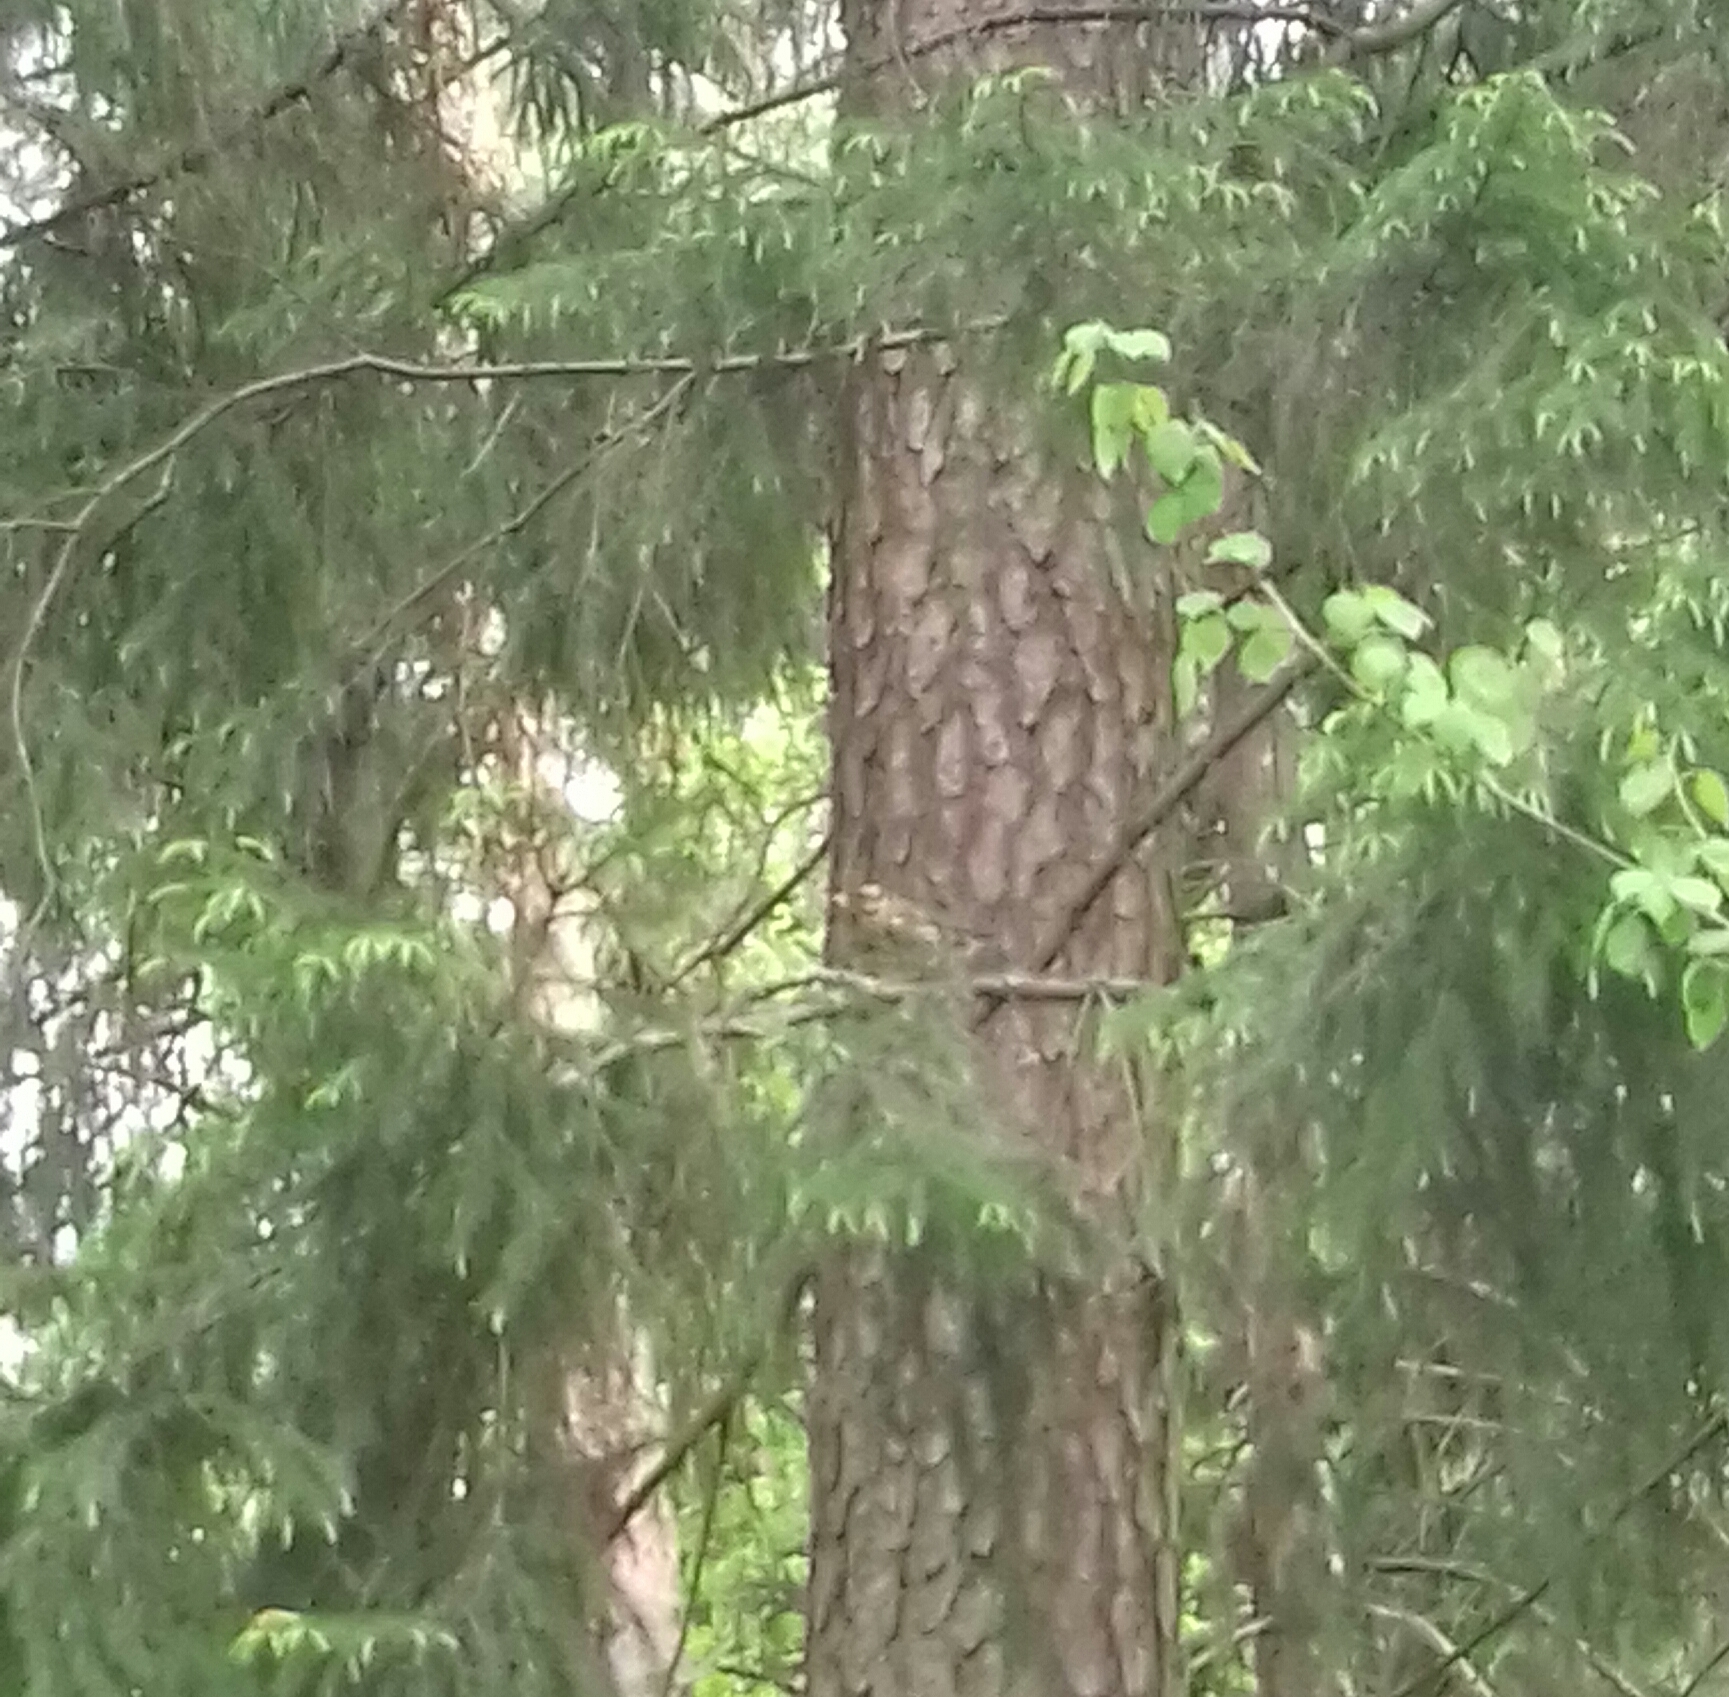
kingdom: Animalia
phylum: Chordata
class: Aves
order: Passeriformes
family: Turdidae
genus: Turdus
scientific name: Turdus iliacus
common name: Redwing
